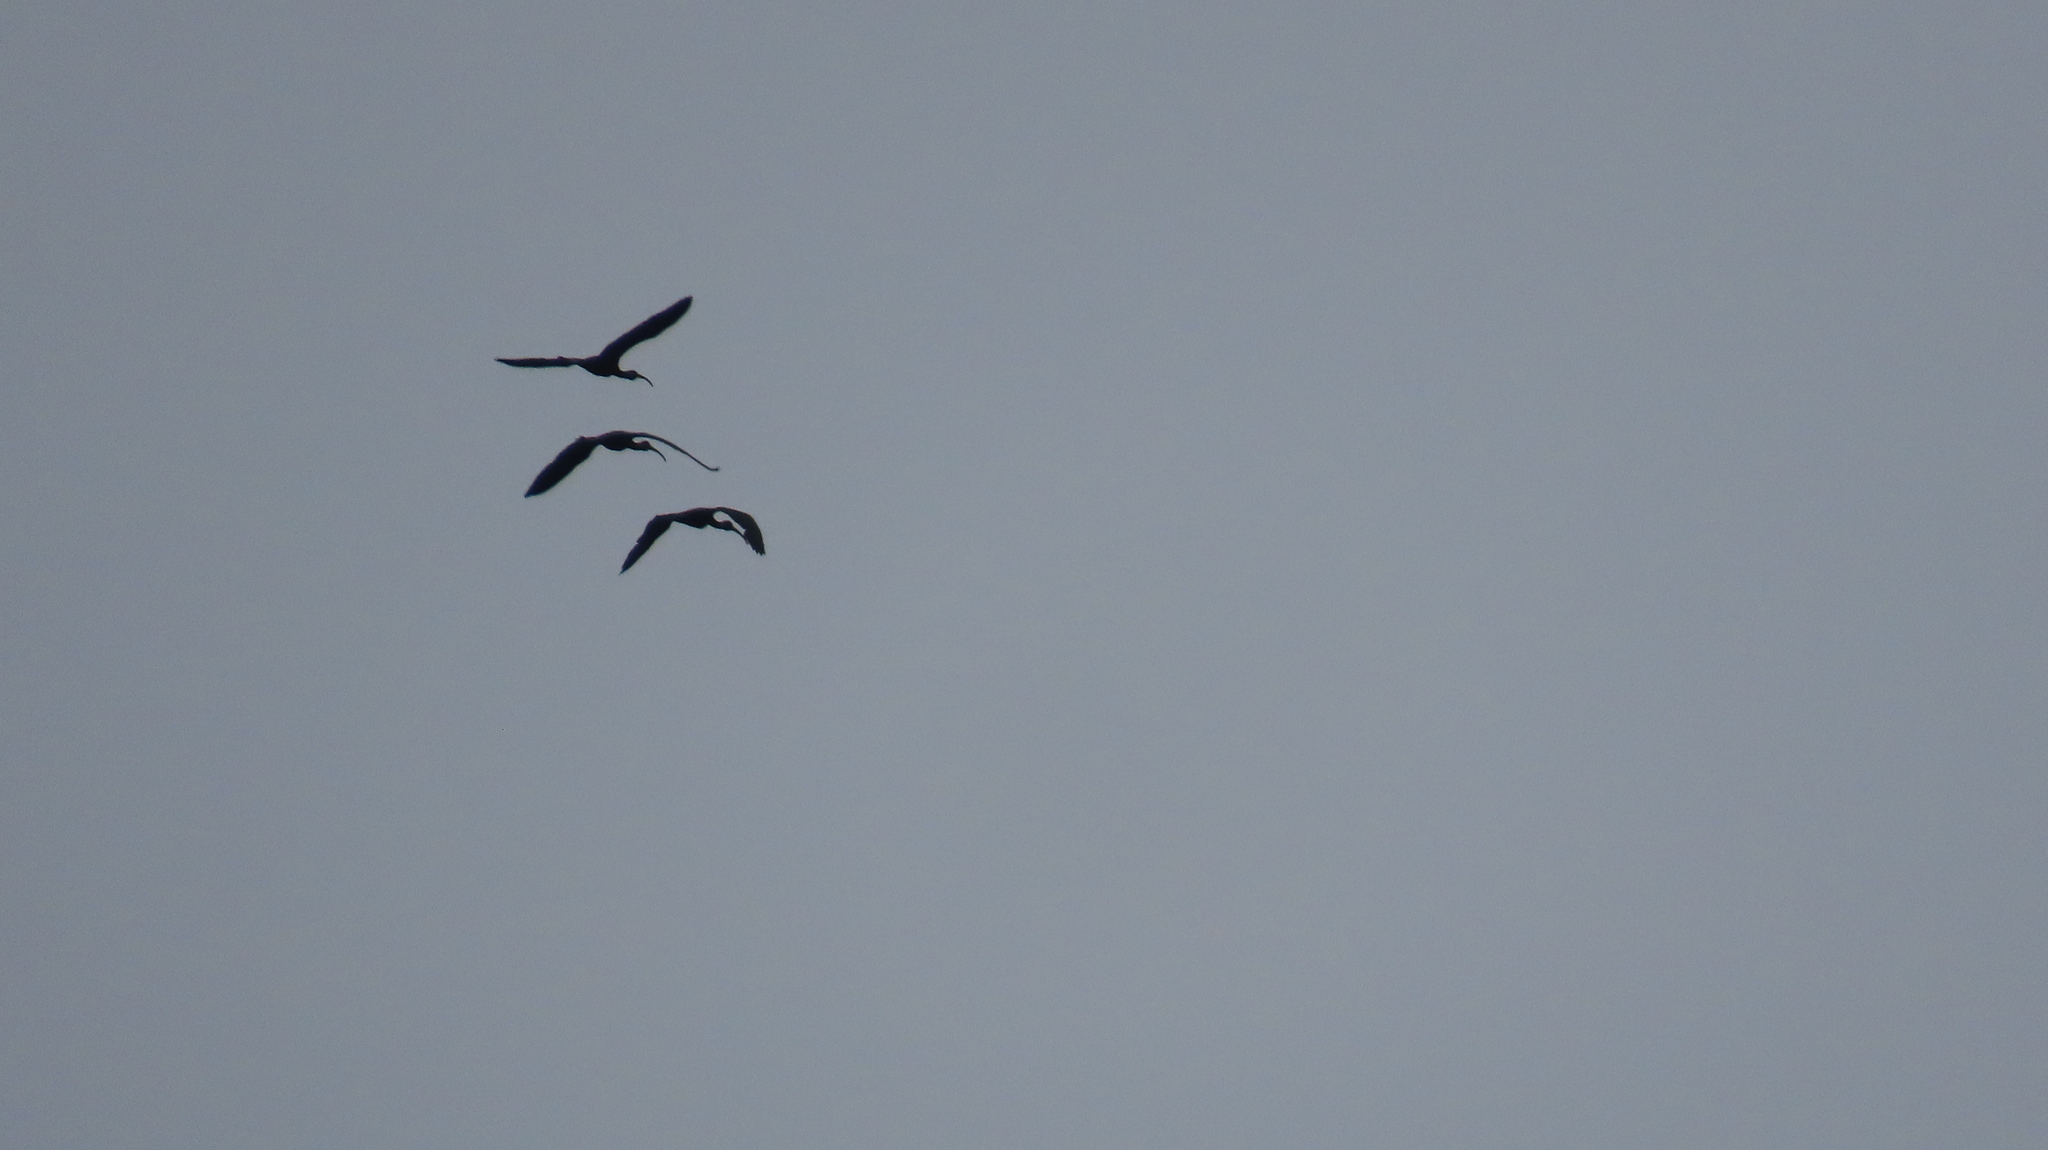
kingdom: Animalia
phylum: Chordata
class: Aves
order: Pelecaniformes
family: Threskiornithidae
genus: Plegadis
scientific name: Plegadis falcinellus
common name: Glossy ibis
